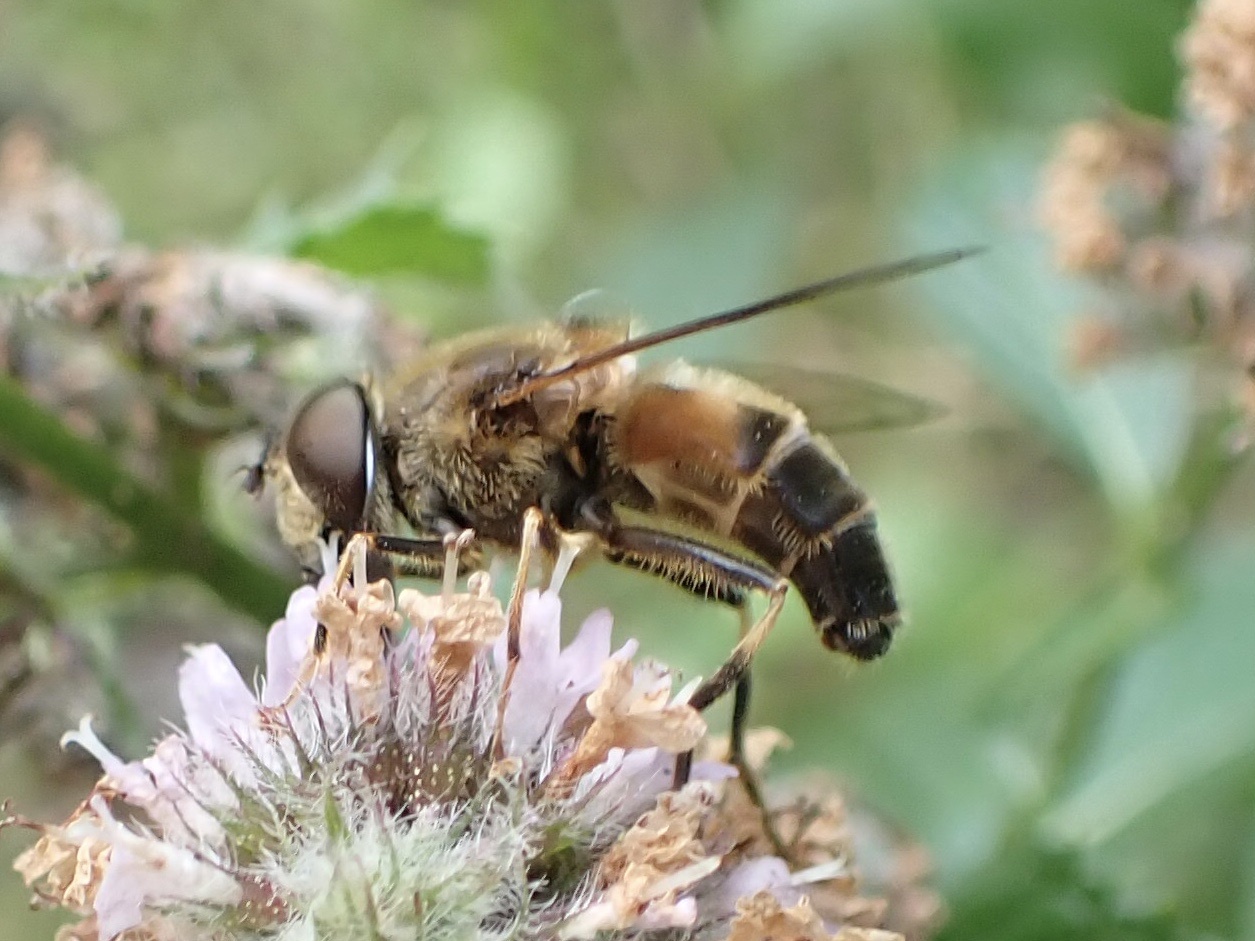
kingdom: Animalia
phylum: Arthropoda
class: Insecta
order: Diptera
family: Syrphidae
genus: Eristalis
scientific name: Eristalis pertinax
